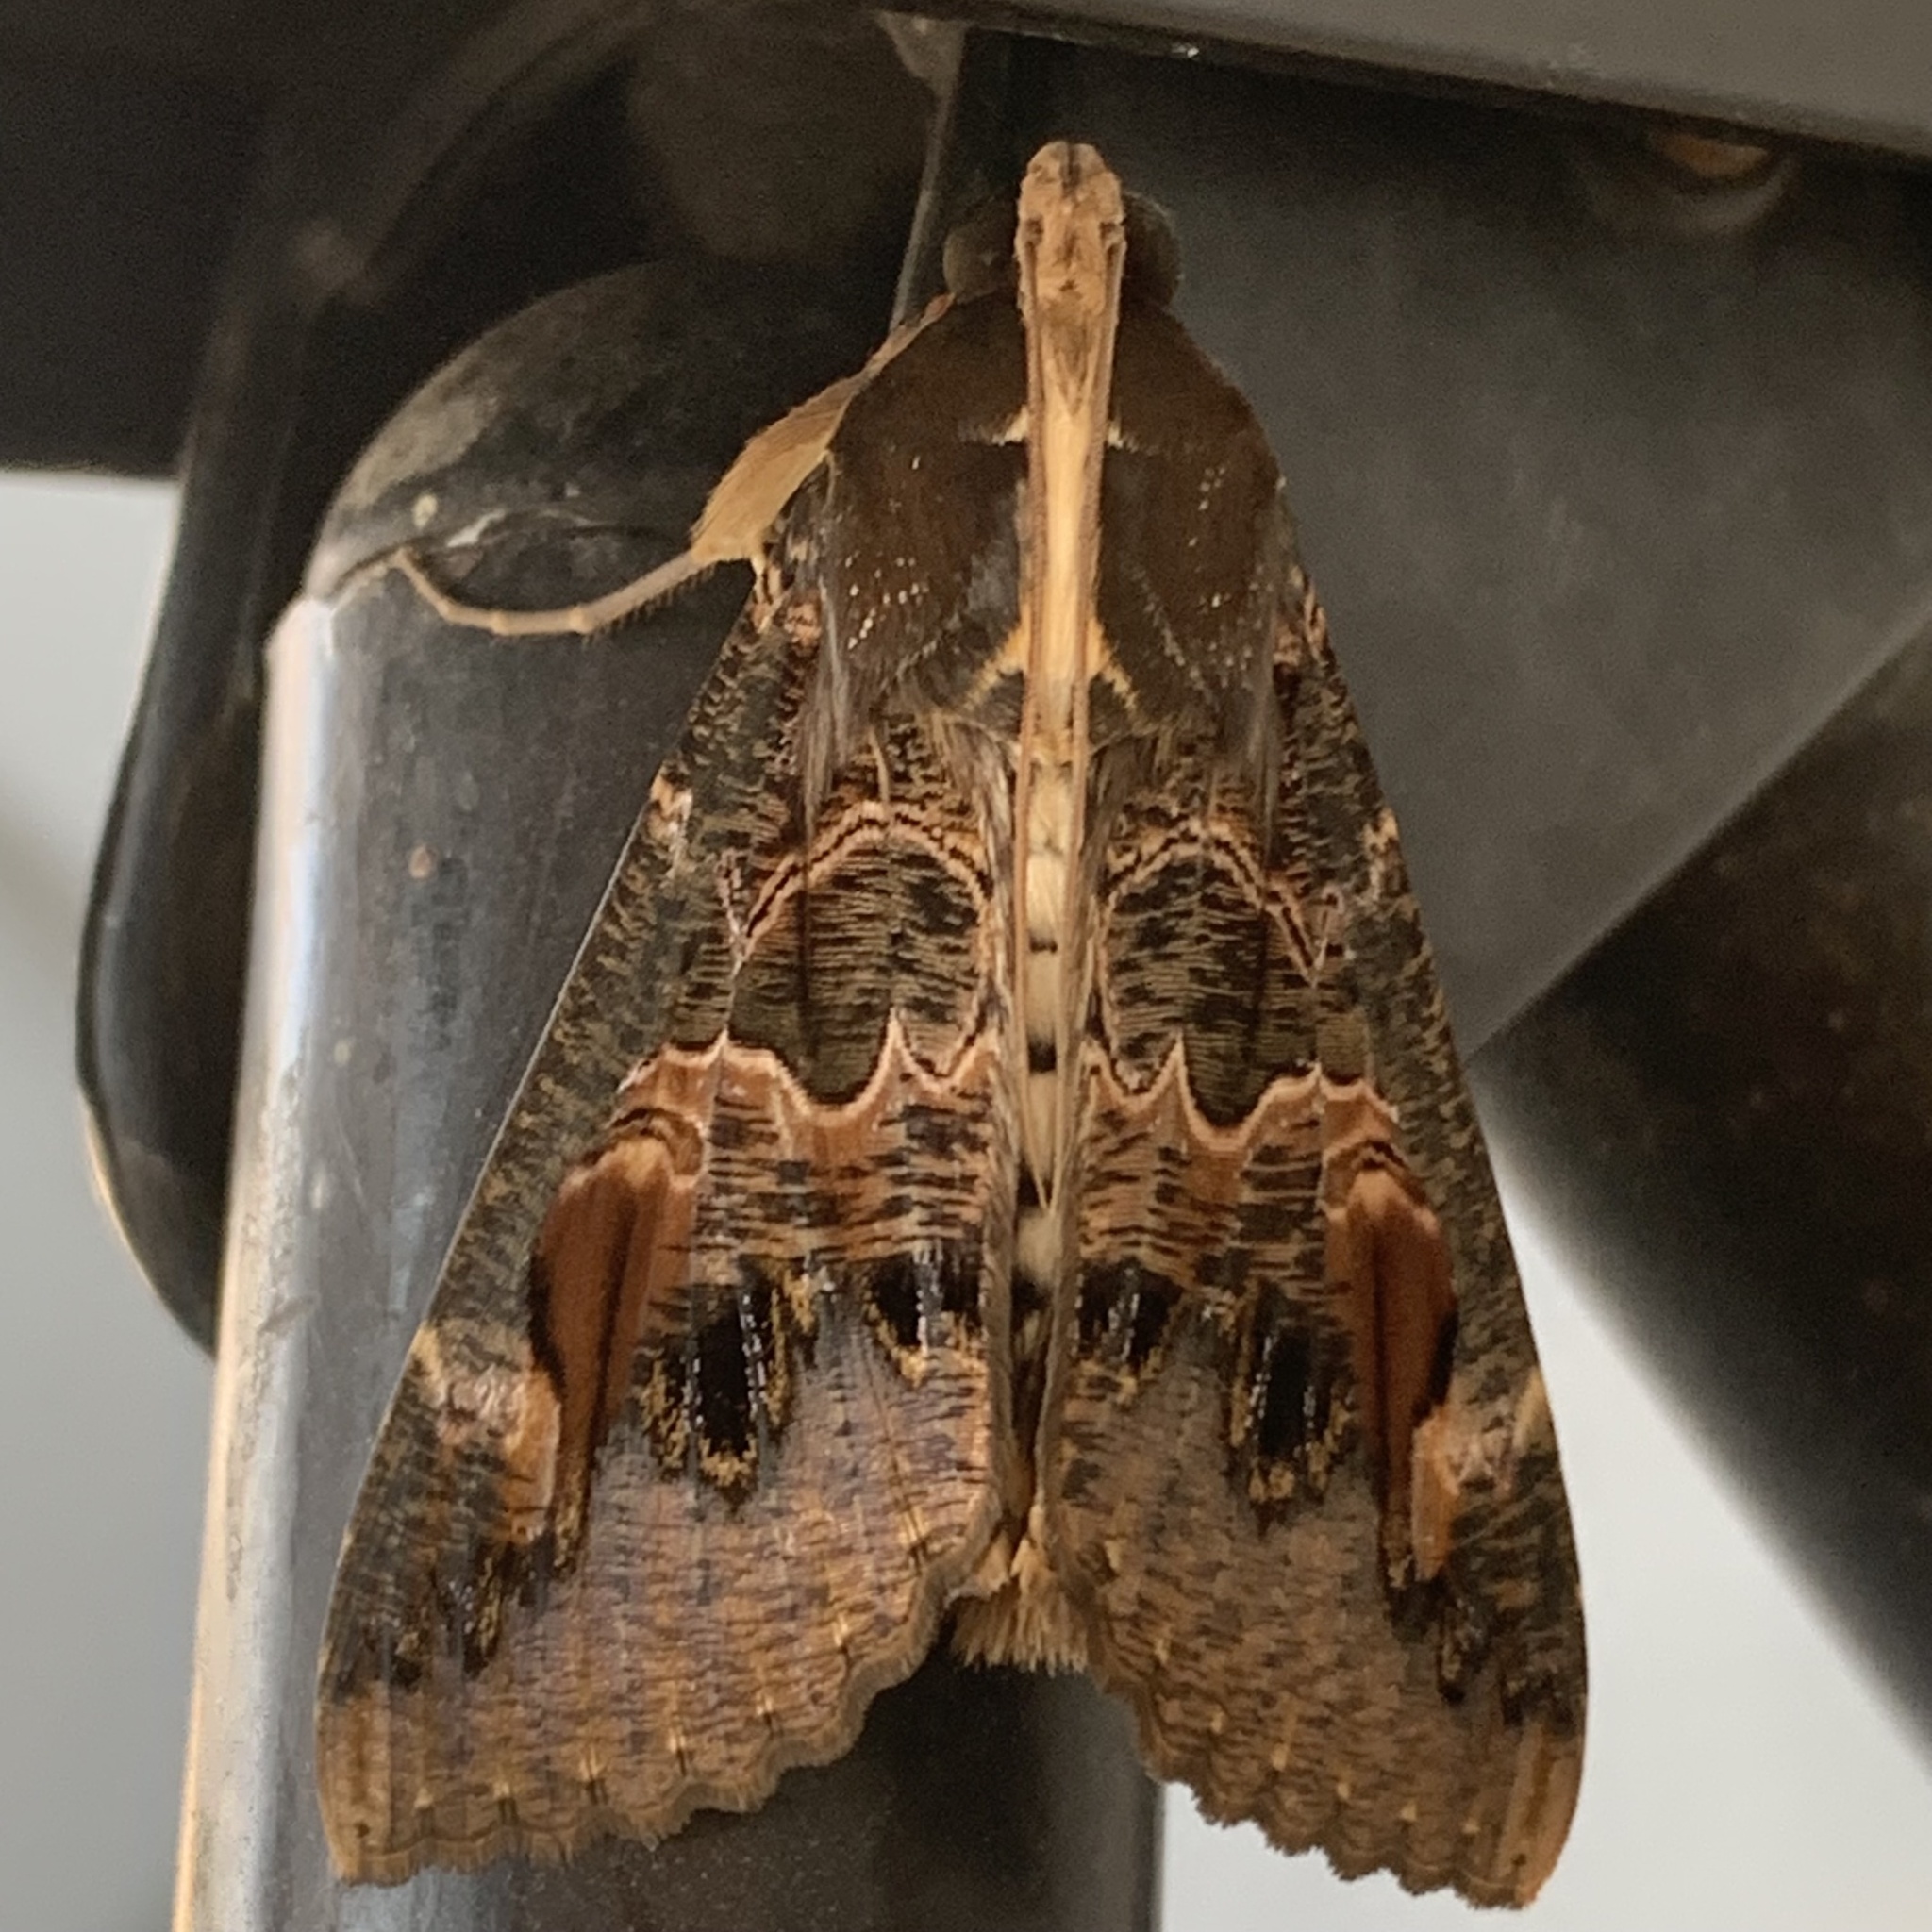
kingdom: Animalia
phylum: Arthropoda
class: Insecta
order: Lepidoptera
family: Erebidae
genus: Sphingomorpha
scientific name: Sphingomorpha chlorea
